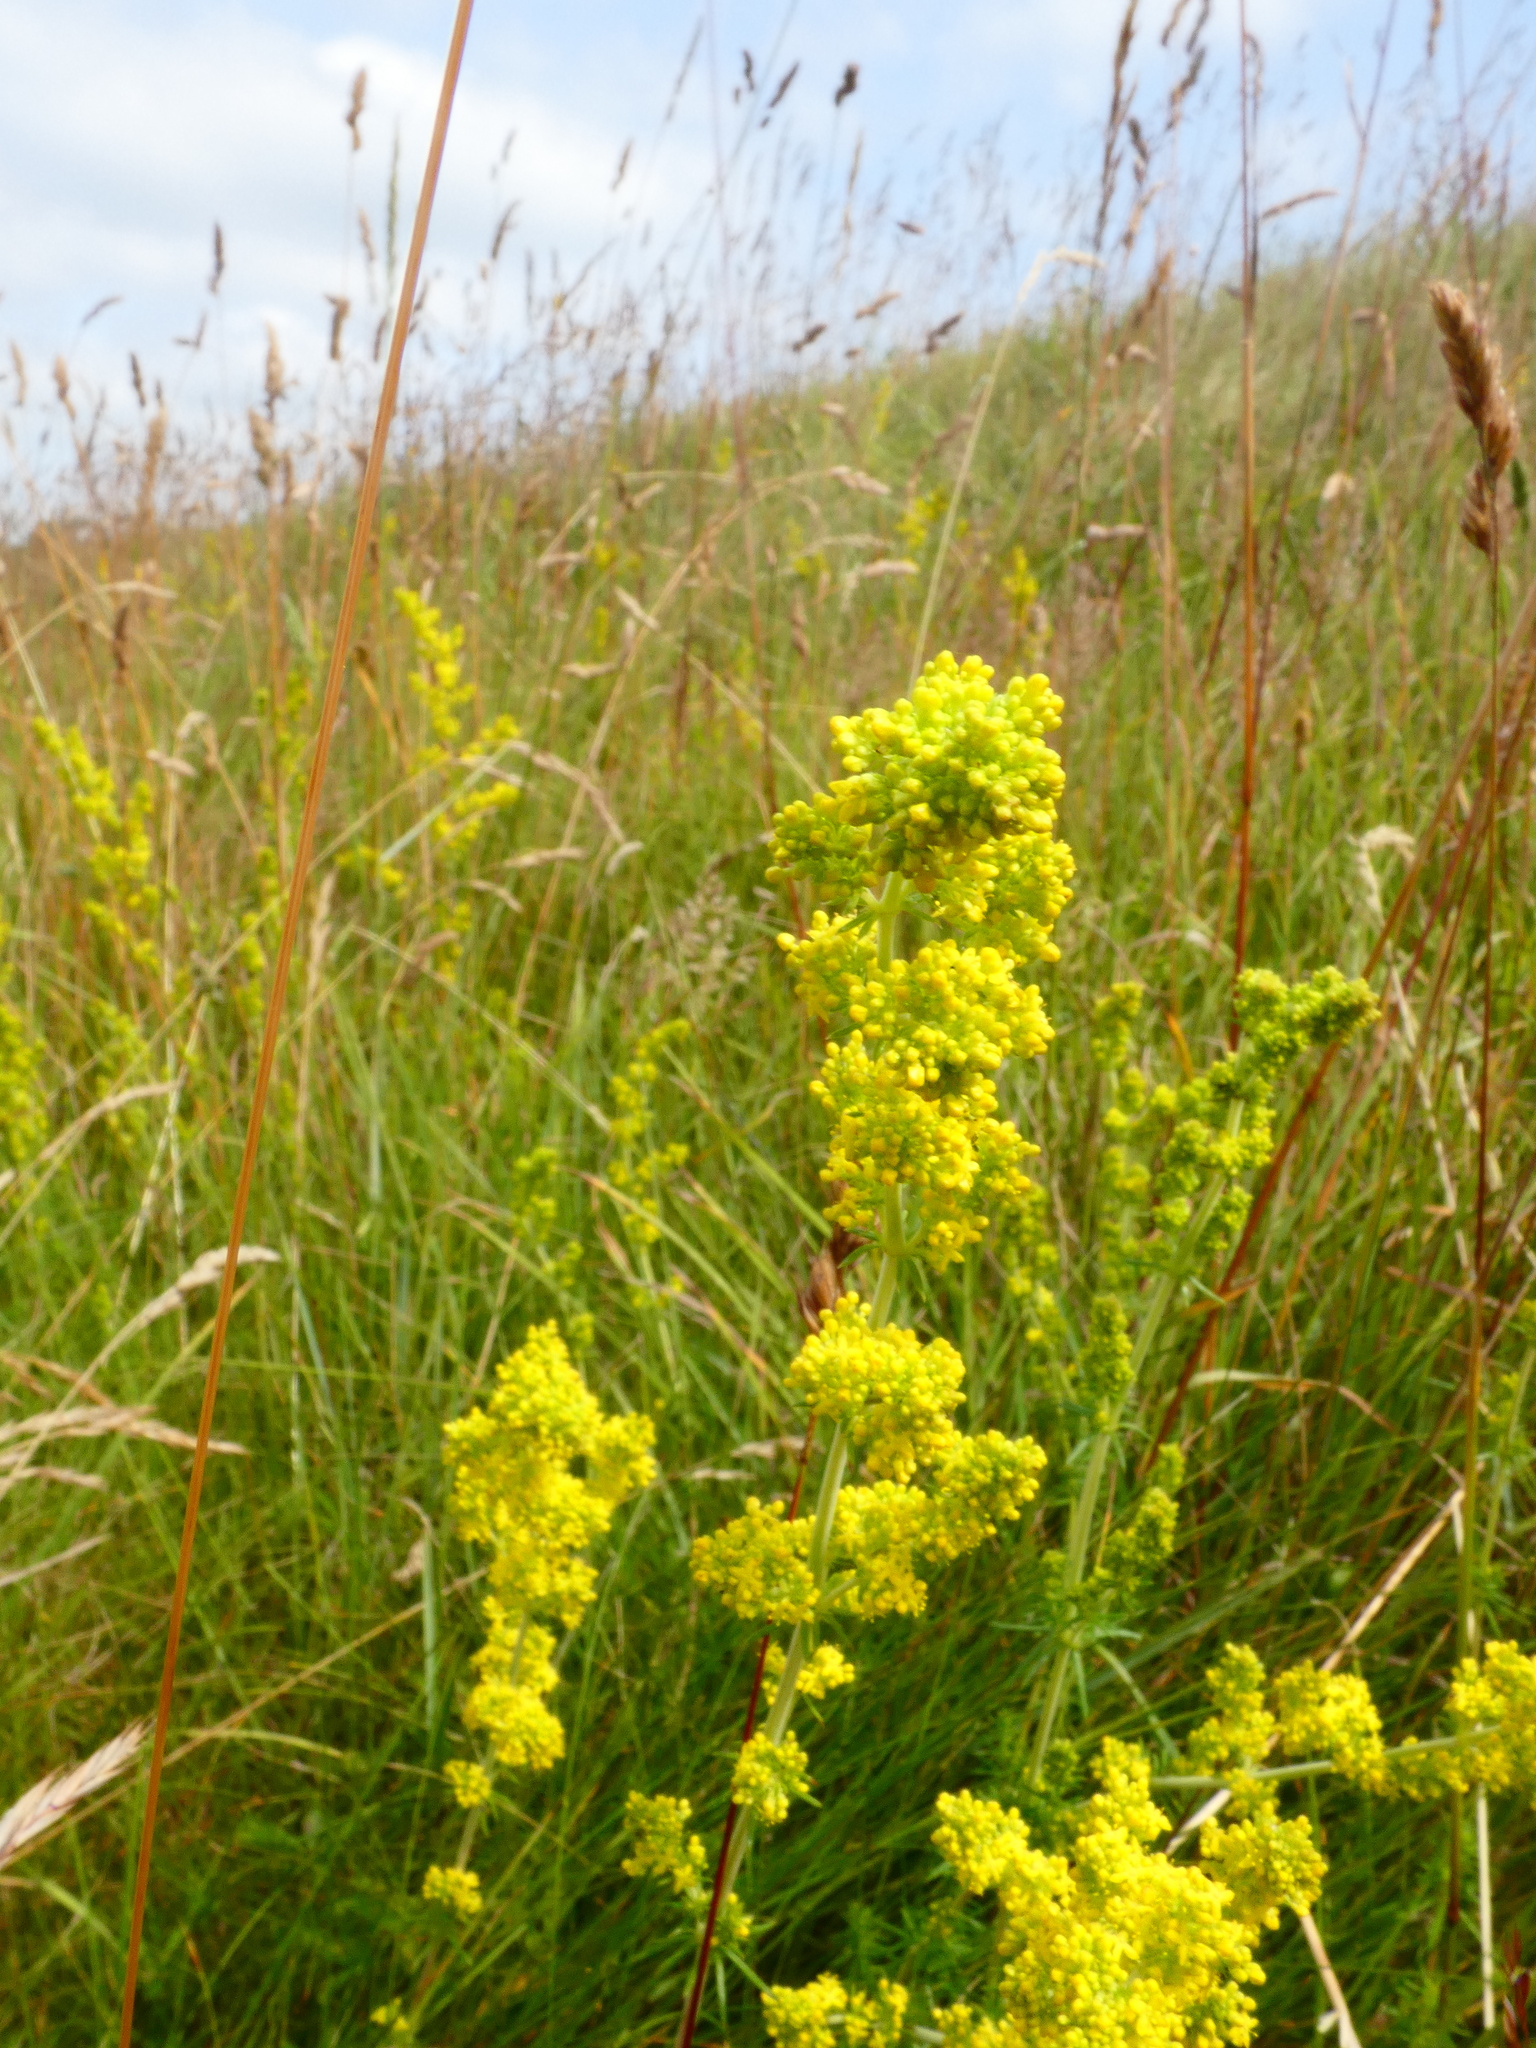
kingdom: Plantae
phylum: Tracheophyta
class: Magnoliopsida
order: Gentianales
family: Rubiaceae
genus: Galium
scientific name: Galium verum
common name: Lady's bedstraw
